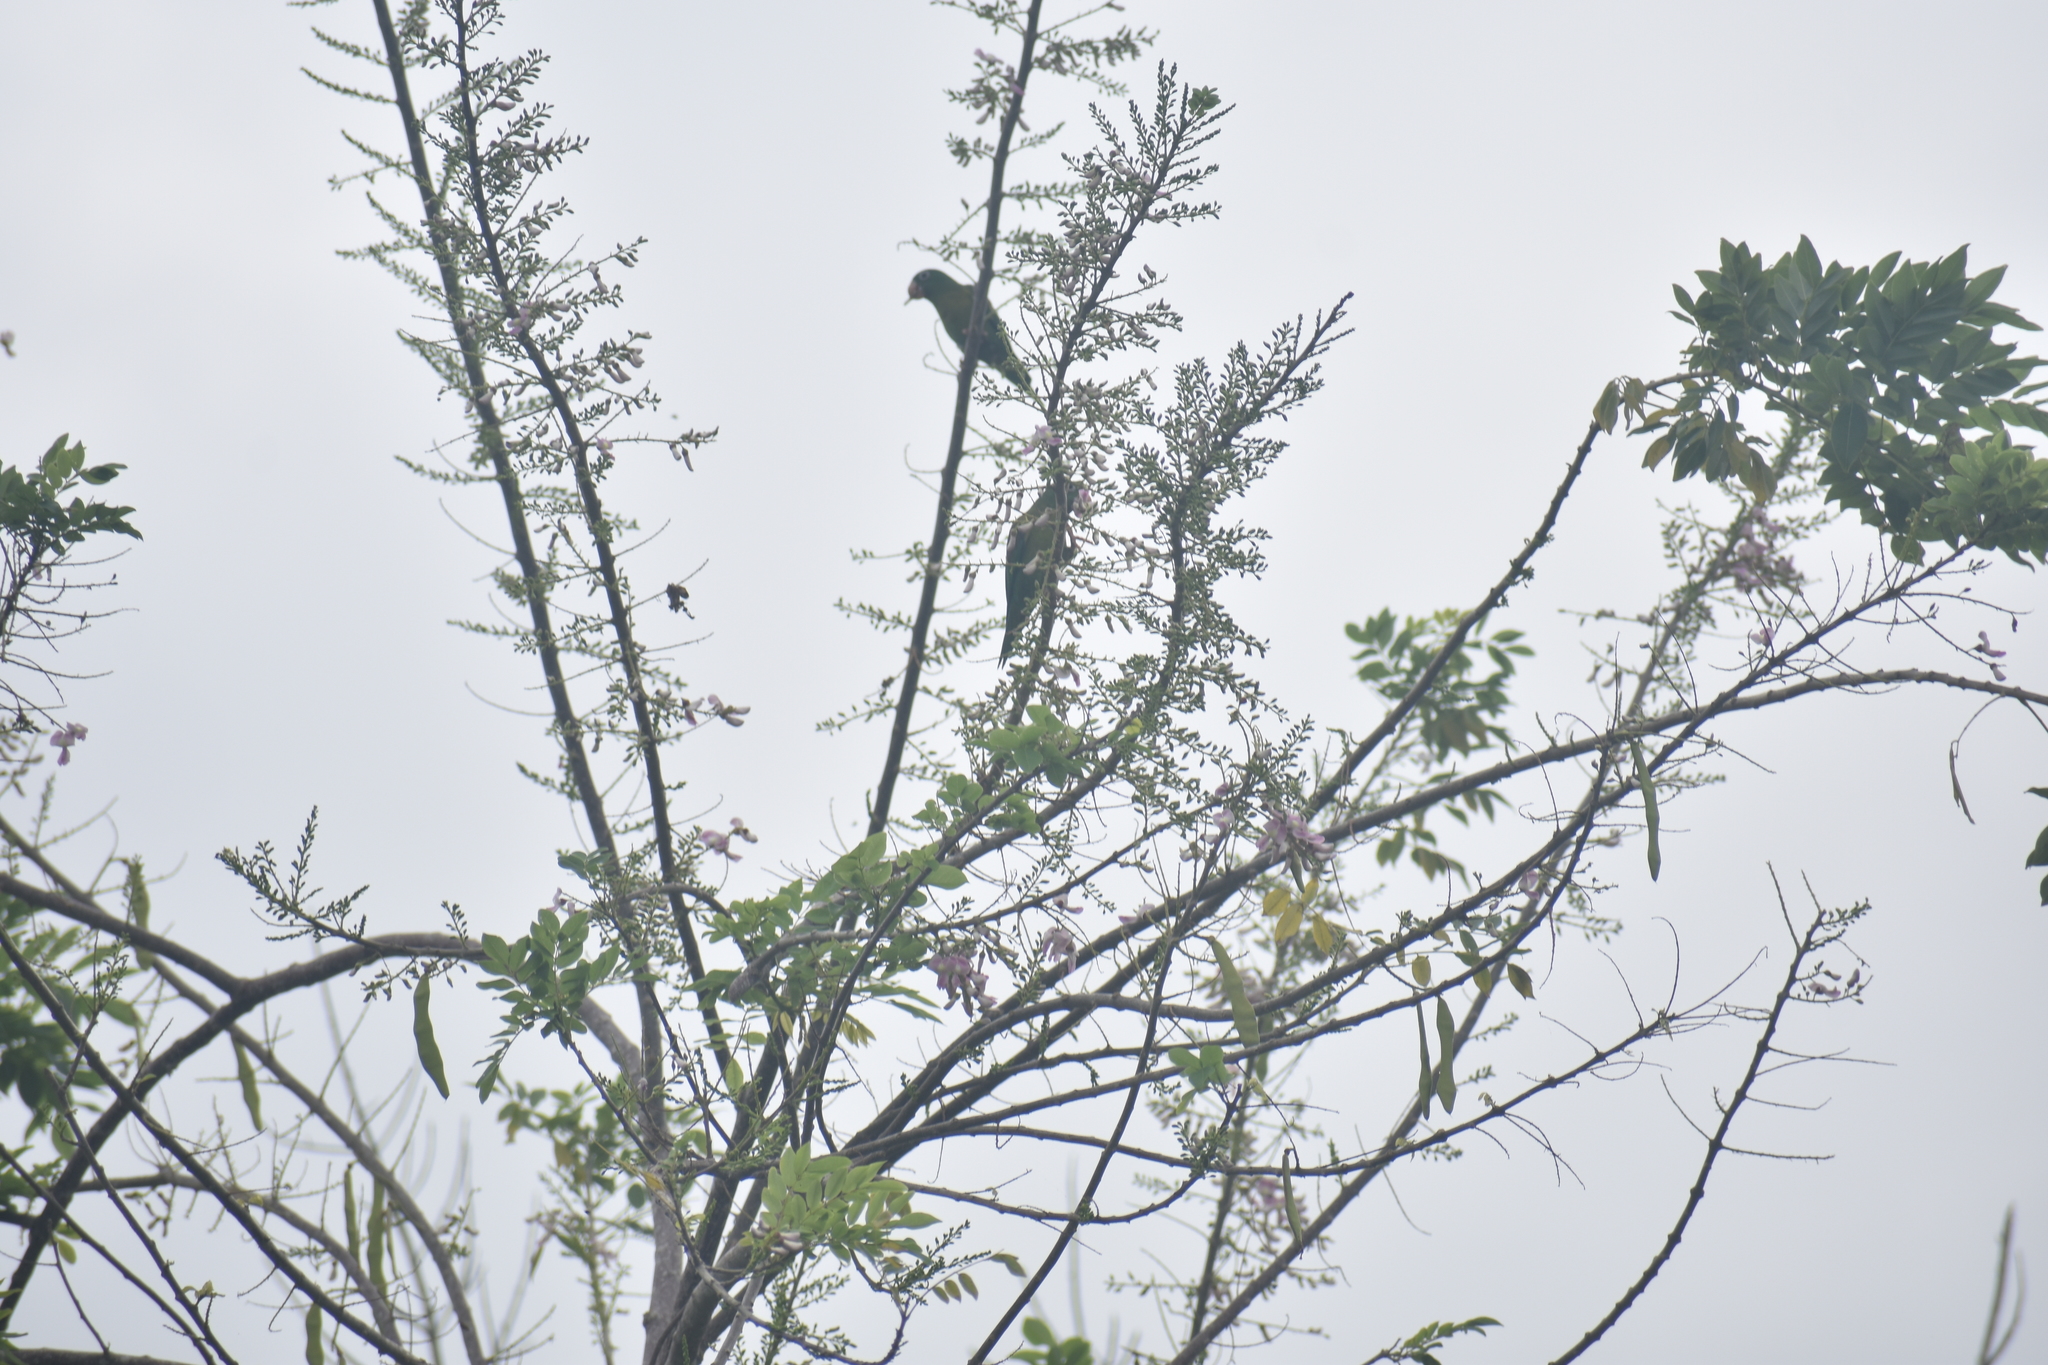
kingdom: Animalia
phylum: Chordata
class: Aves
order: Psittaciformes
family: Psittacidae
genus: Brotogeris
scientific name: Brotogeris jugularis
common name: Orange-chinned parakeet
